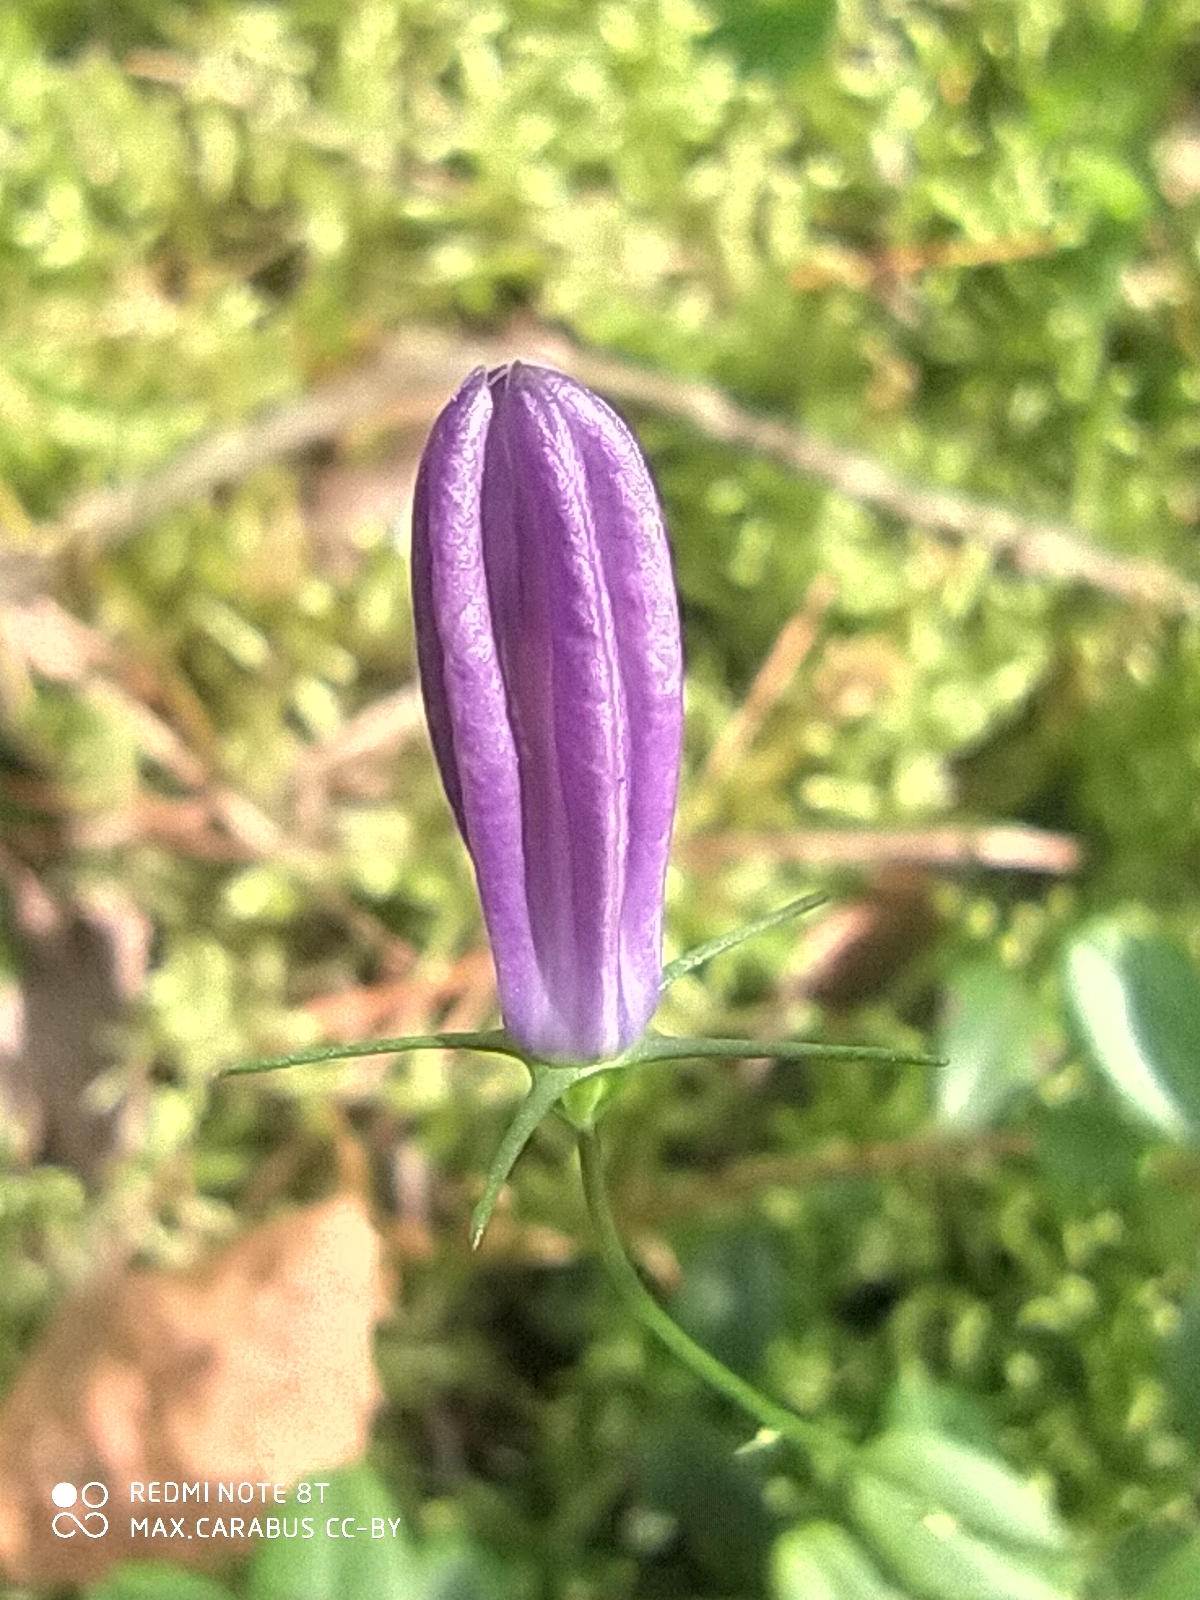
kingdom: Plantae
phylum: Tracheophyta
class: Magnoliopsida
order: Asterales
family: Campanulaceae
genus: Campanula
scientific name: Campanula rotundifolia
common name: Harebell
